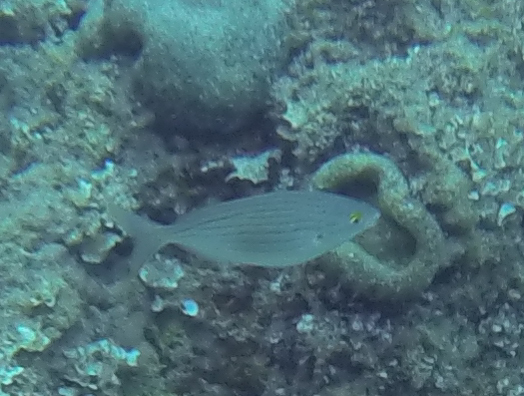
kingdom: Animalia
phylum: Chordata
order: Perciformes
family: Sparidae
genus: Sarpa
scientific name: Sarpa salpa
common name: Salema
